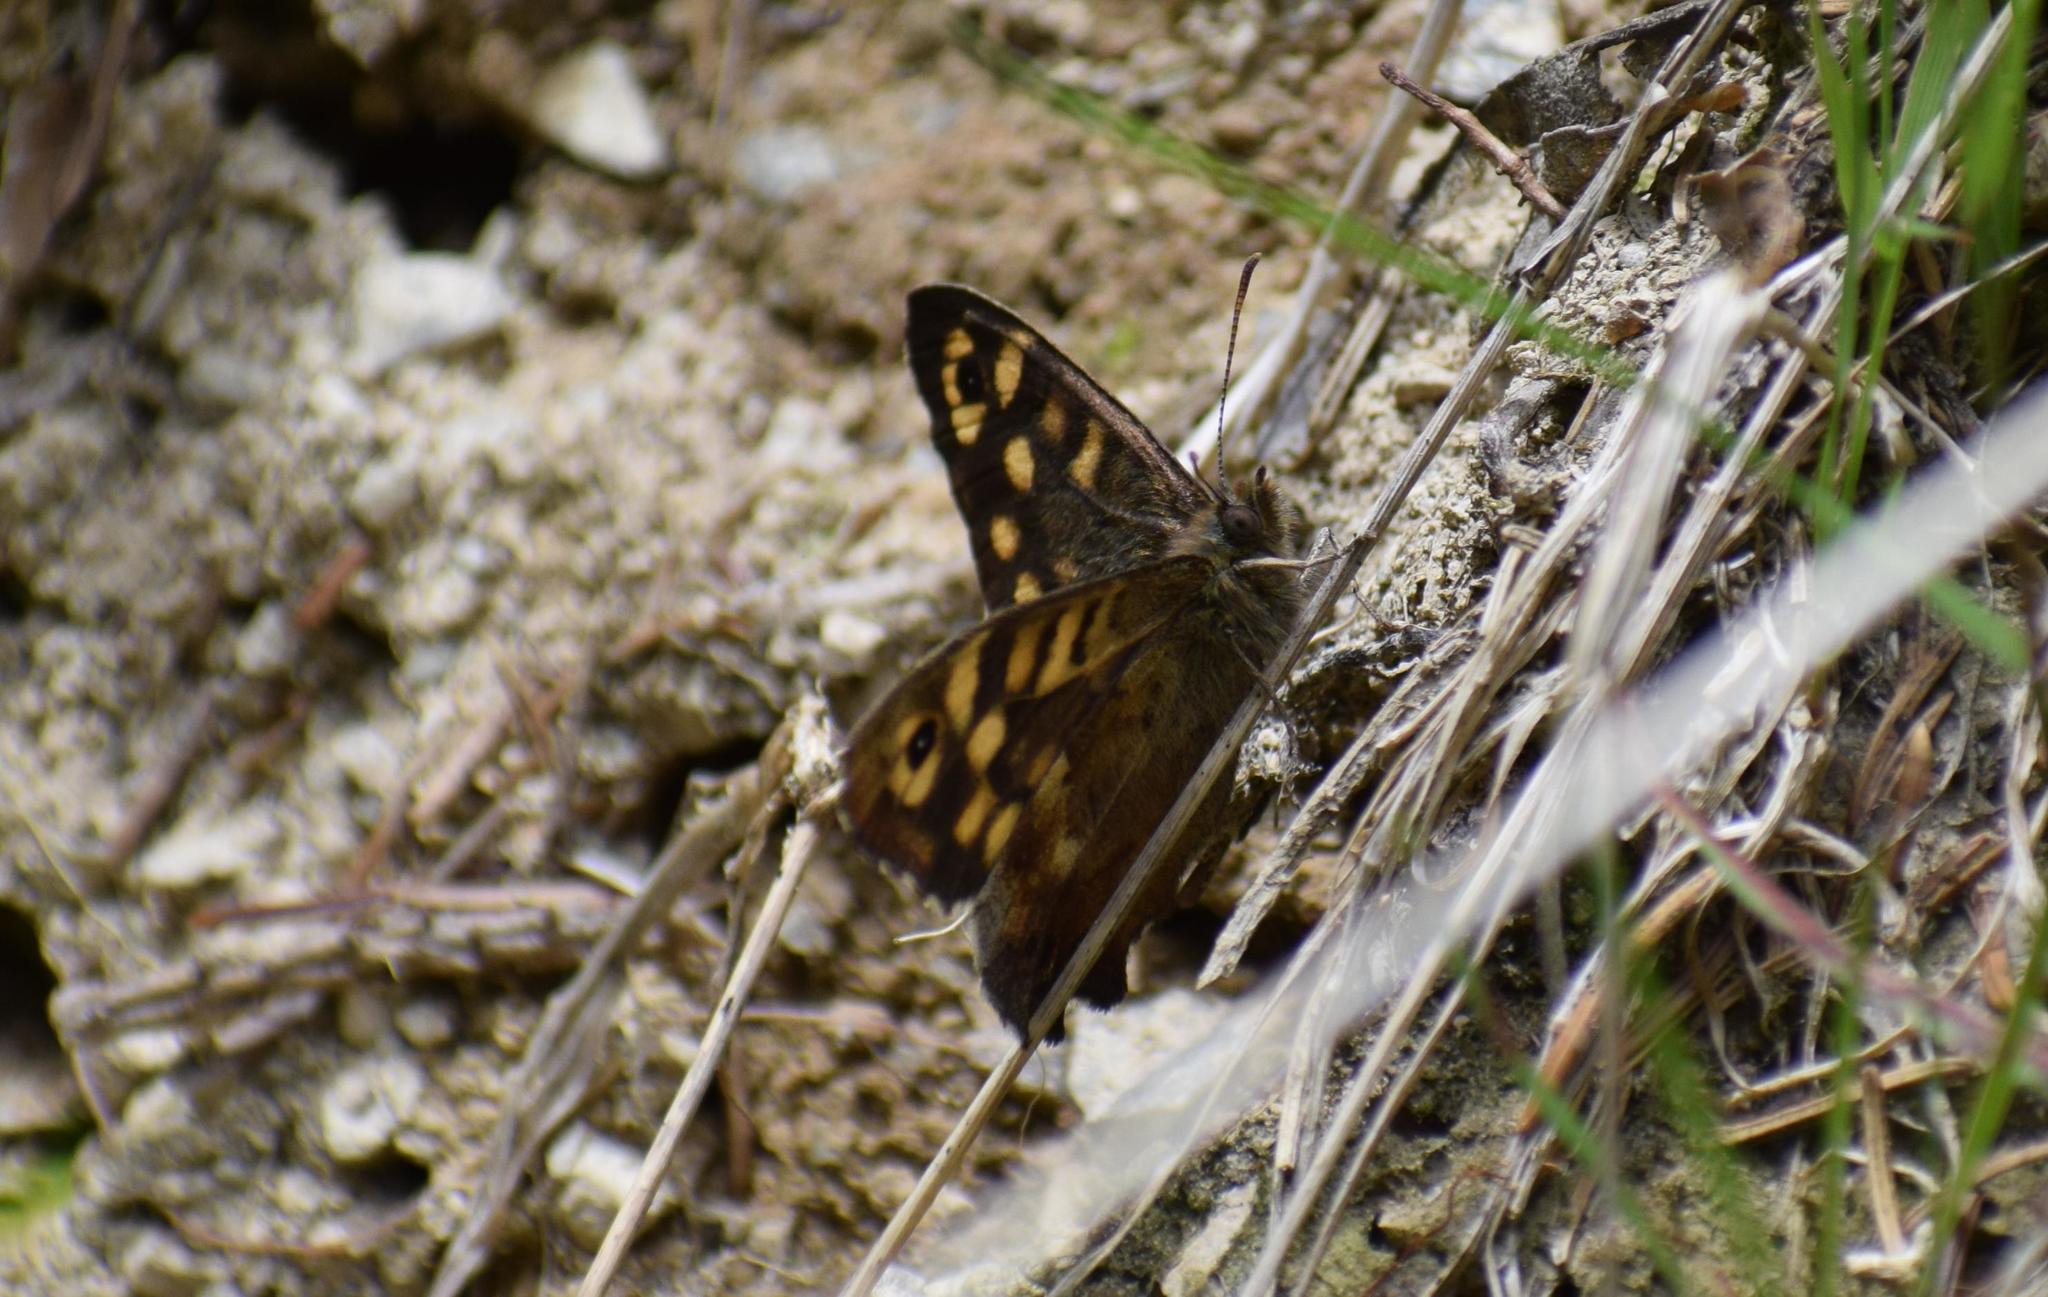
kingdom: Animalia
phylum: Arthropoda
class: Insecta
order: Lepidoptera
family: Nymphalidae
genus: Pararge
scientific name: Pararge aegeria
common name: Speckled wood
